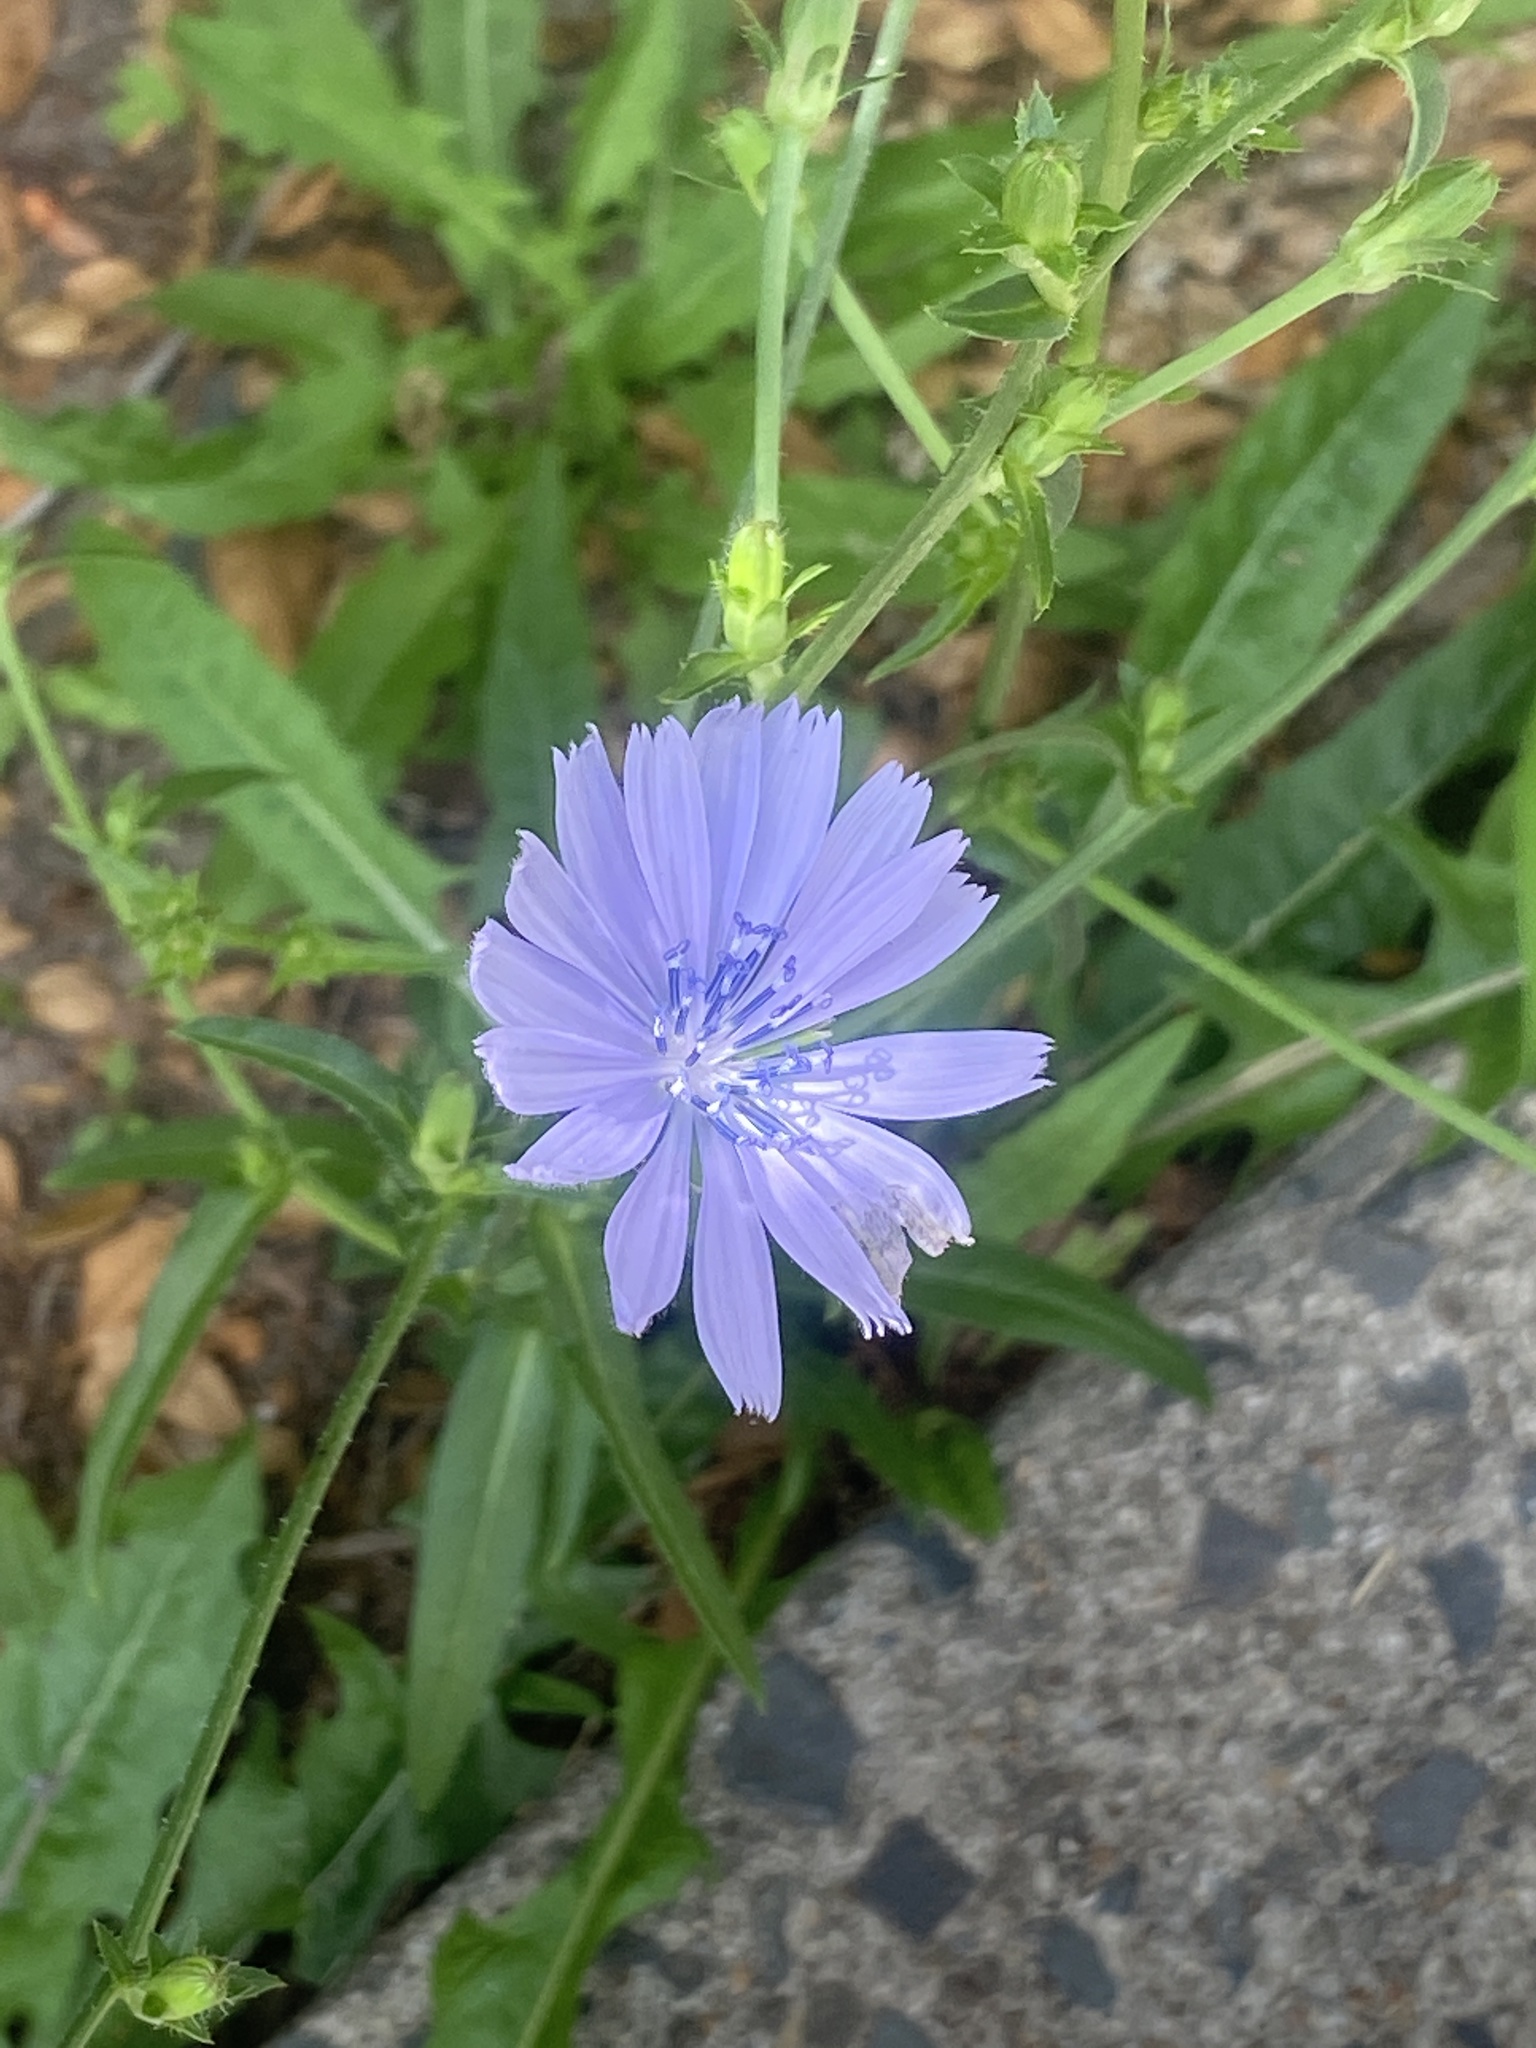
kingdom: Plantae
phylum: Tracheophyta
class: Magnoliopsida
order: Asterales
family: Asteraceae
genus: Cichorium
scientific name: Cichorium intybus
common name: Chicory
